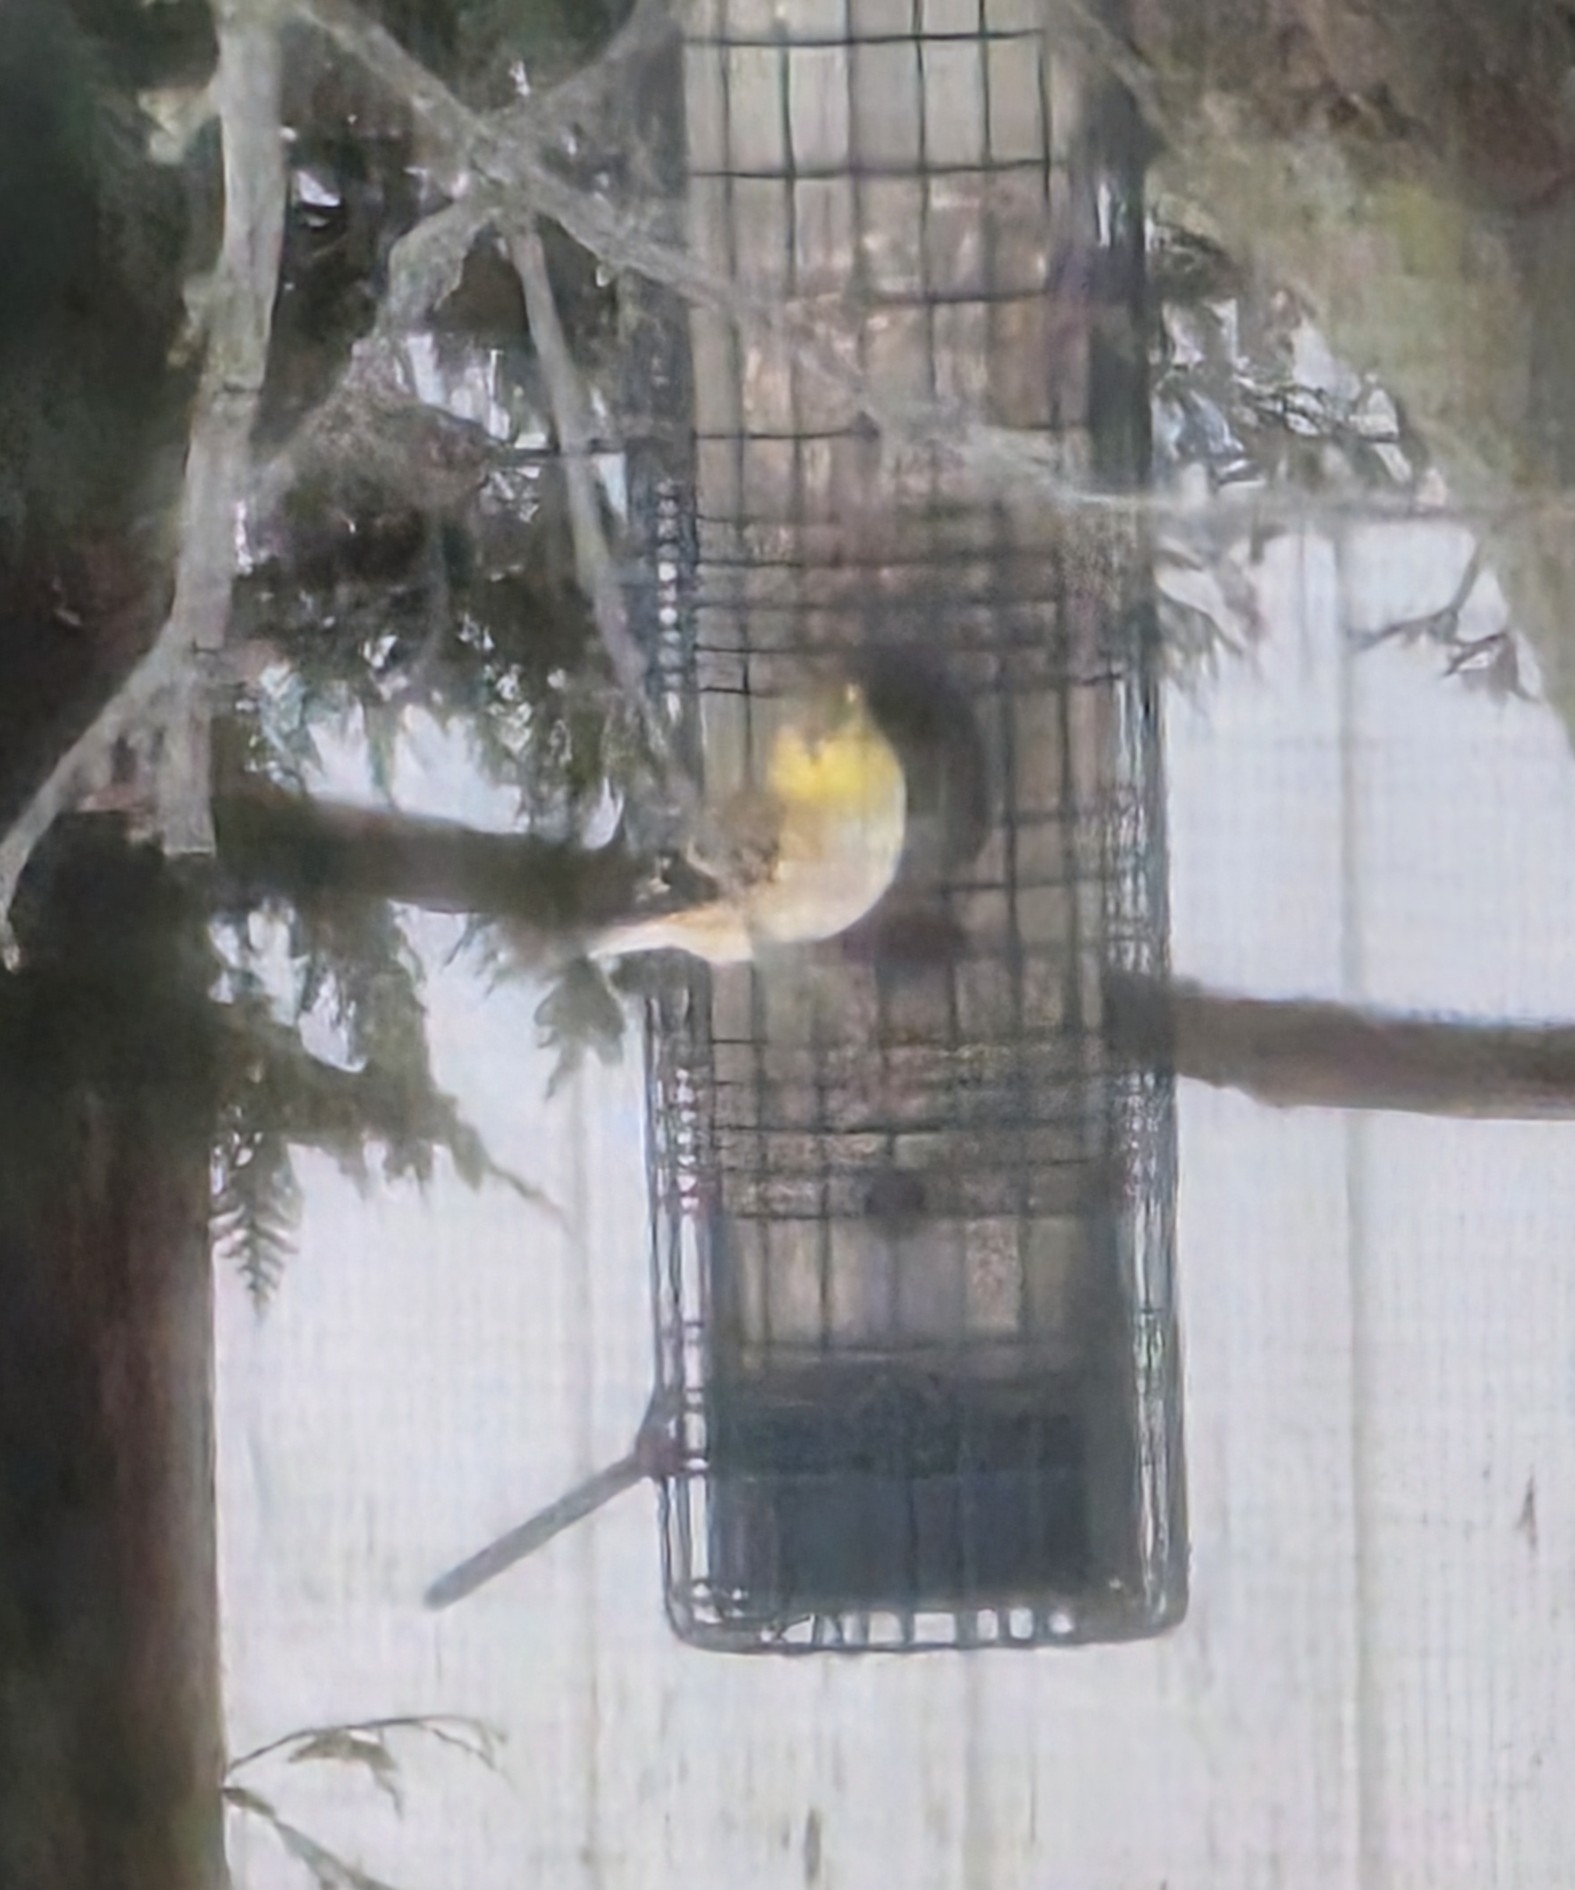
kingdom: Animalia
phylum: Chordata
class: Aves
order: Passeriformes
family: Fringillidae
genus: Spinus
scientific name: Spinus tristis
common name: American goldfinch
